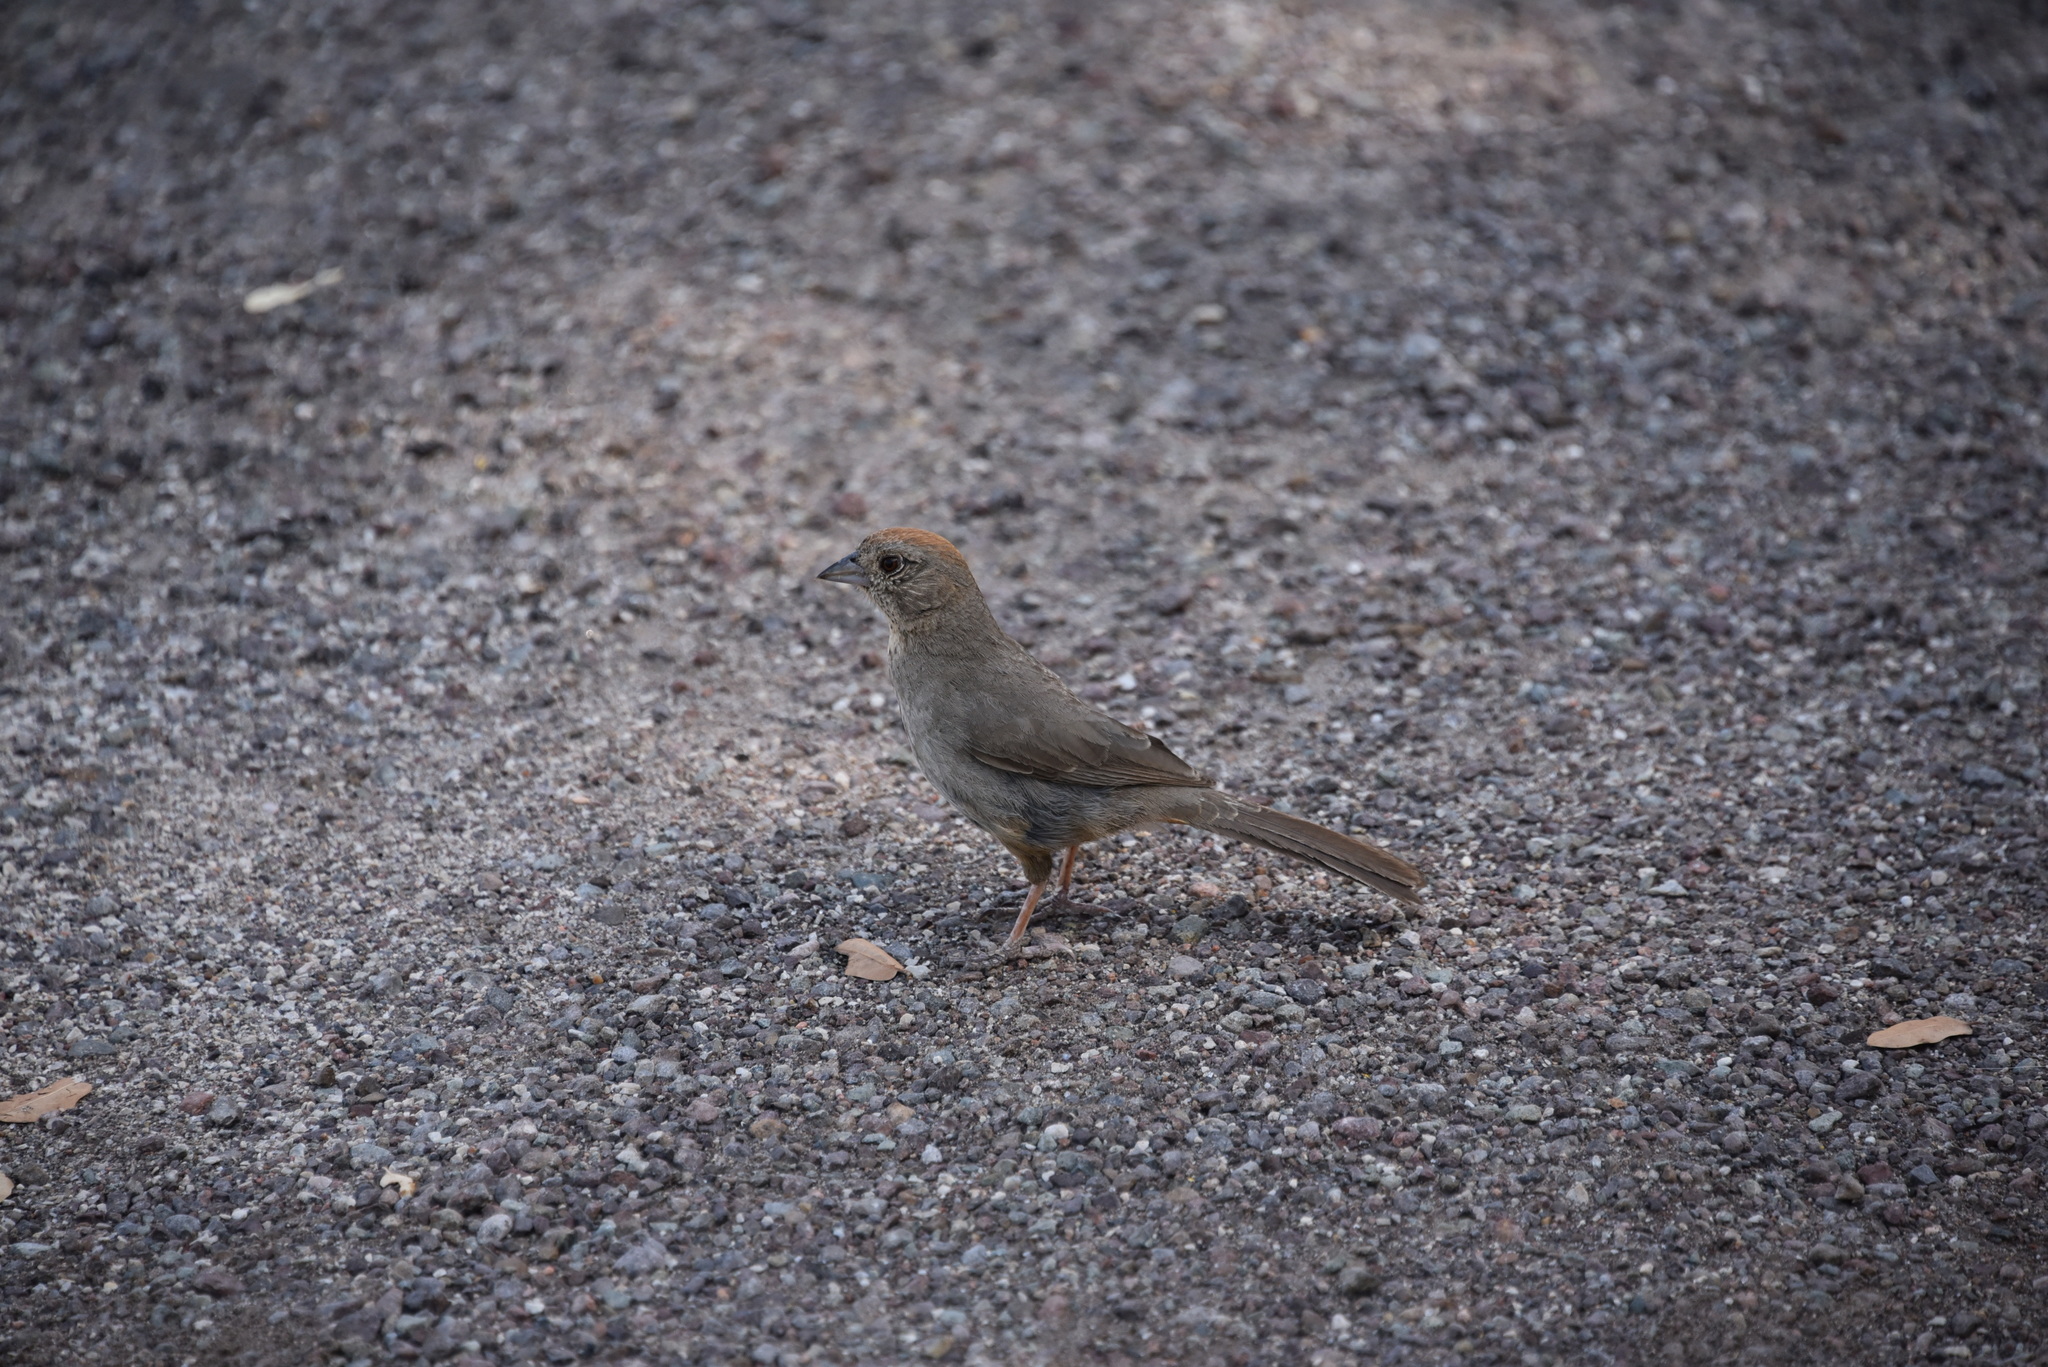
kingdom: Animalia
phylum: Chordata
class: Aves
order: Passeriformes
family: Passerellidae
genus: Melozone
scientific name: Melozone fusca
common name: Canyon towhee
